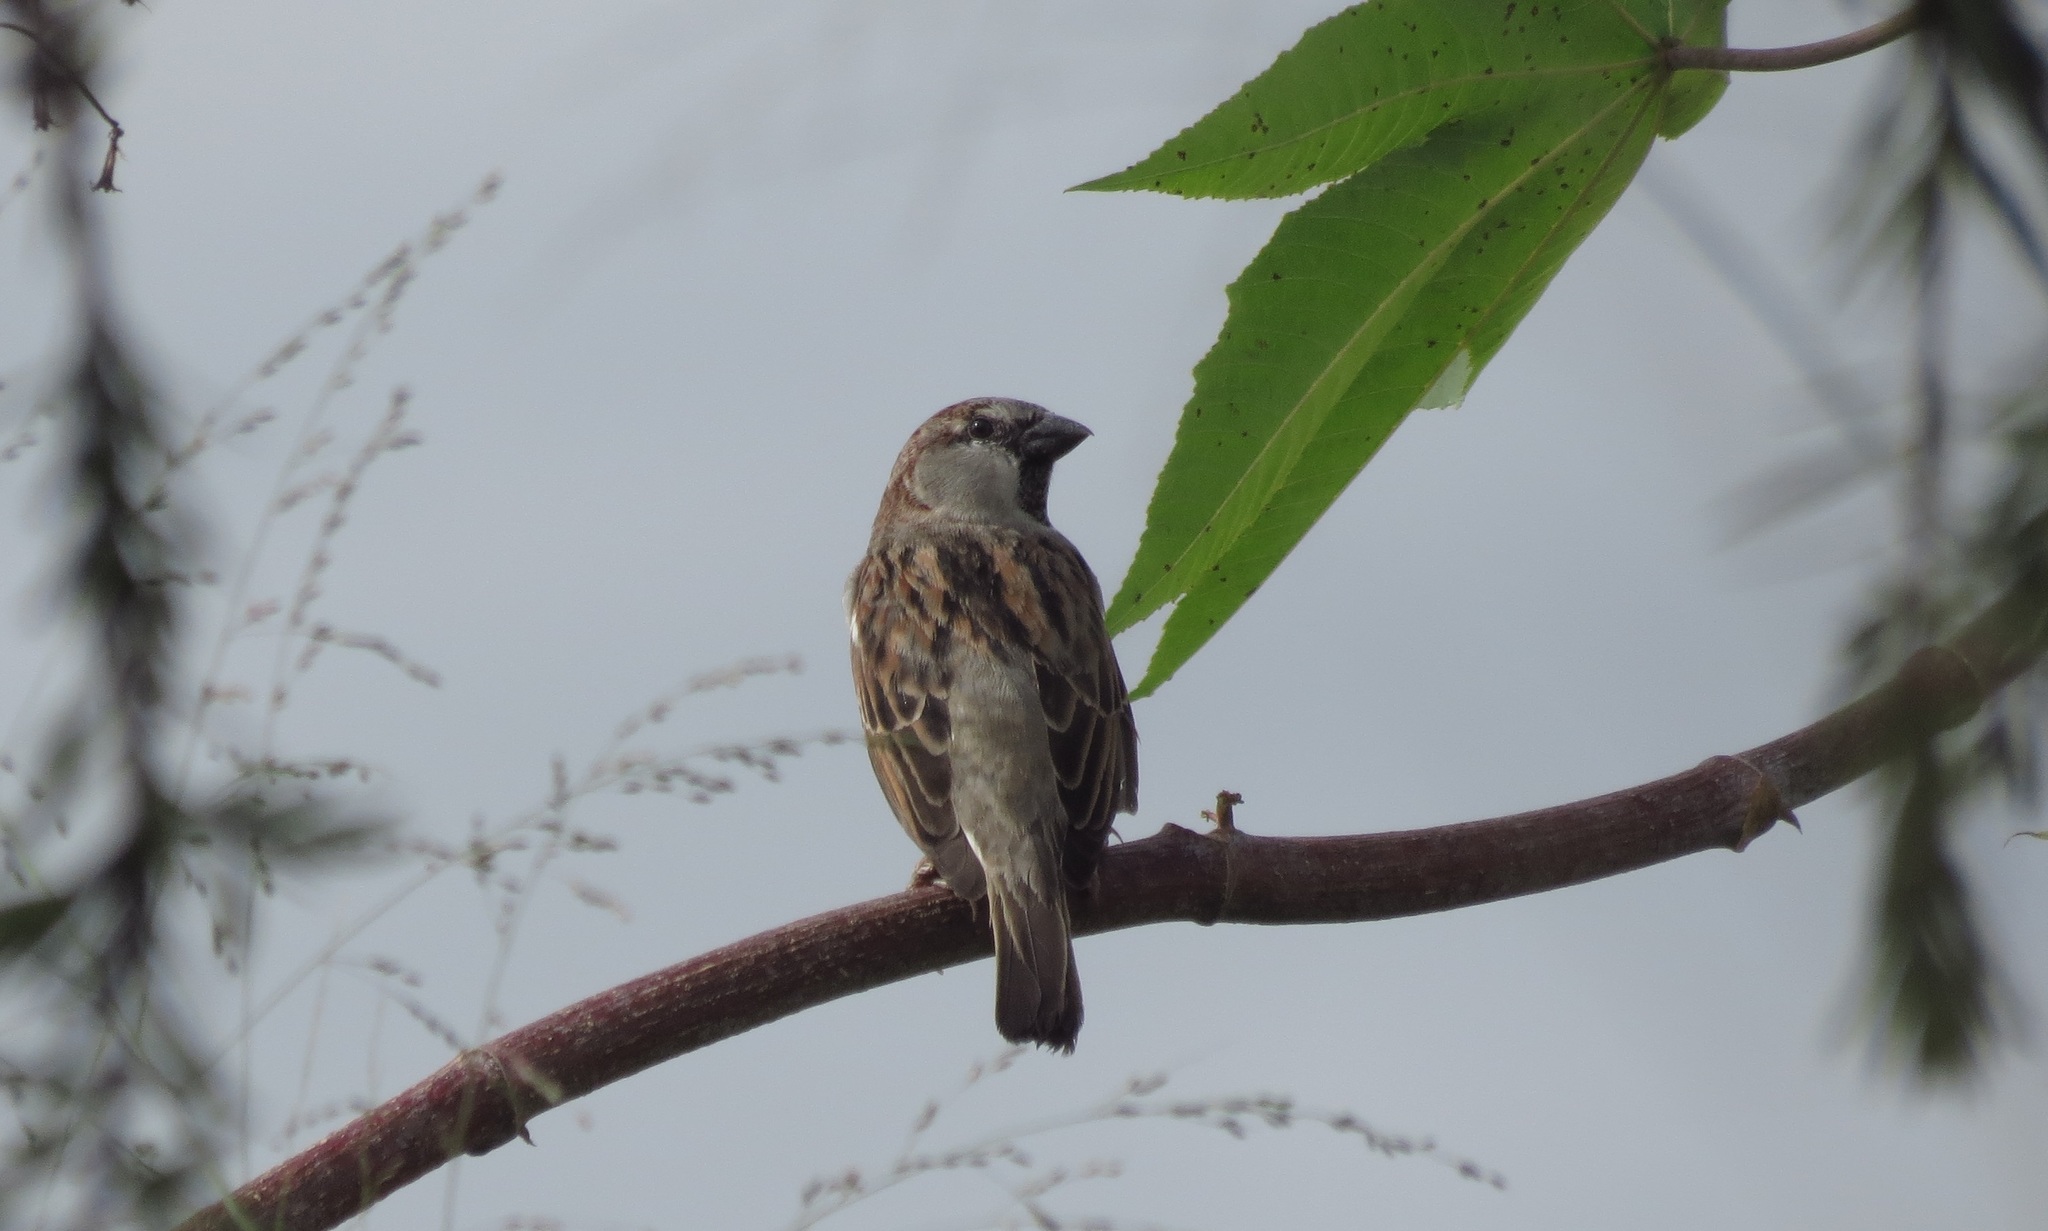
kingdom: Animalia
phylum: Chordata
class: Aves
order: Passeriformes
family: Passeridae
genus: Passer
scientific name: Passer domesticus
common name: House sparrow
